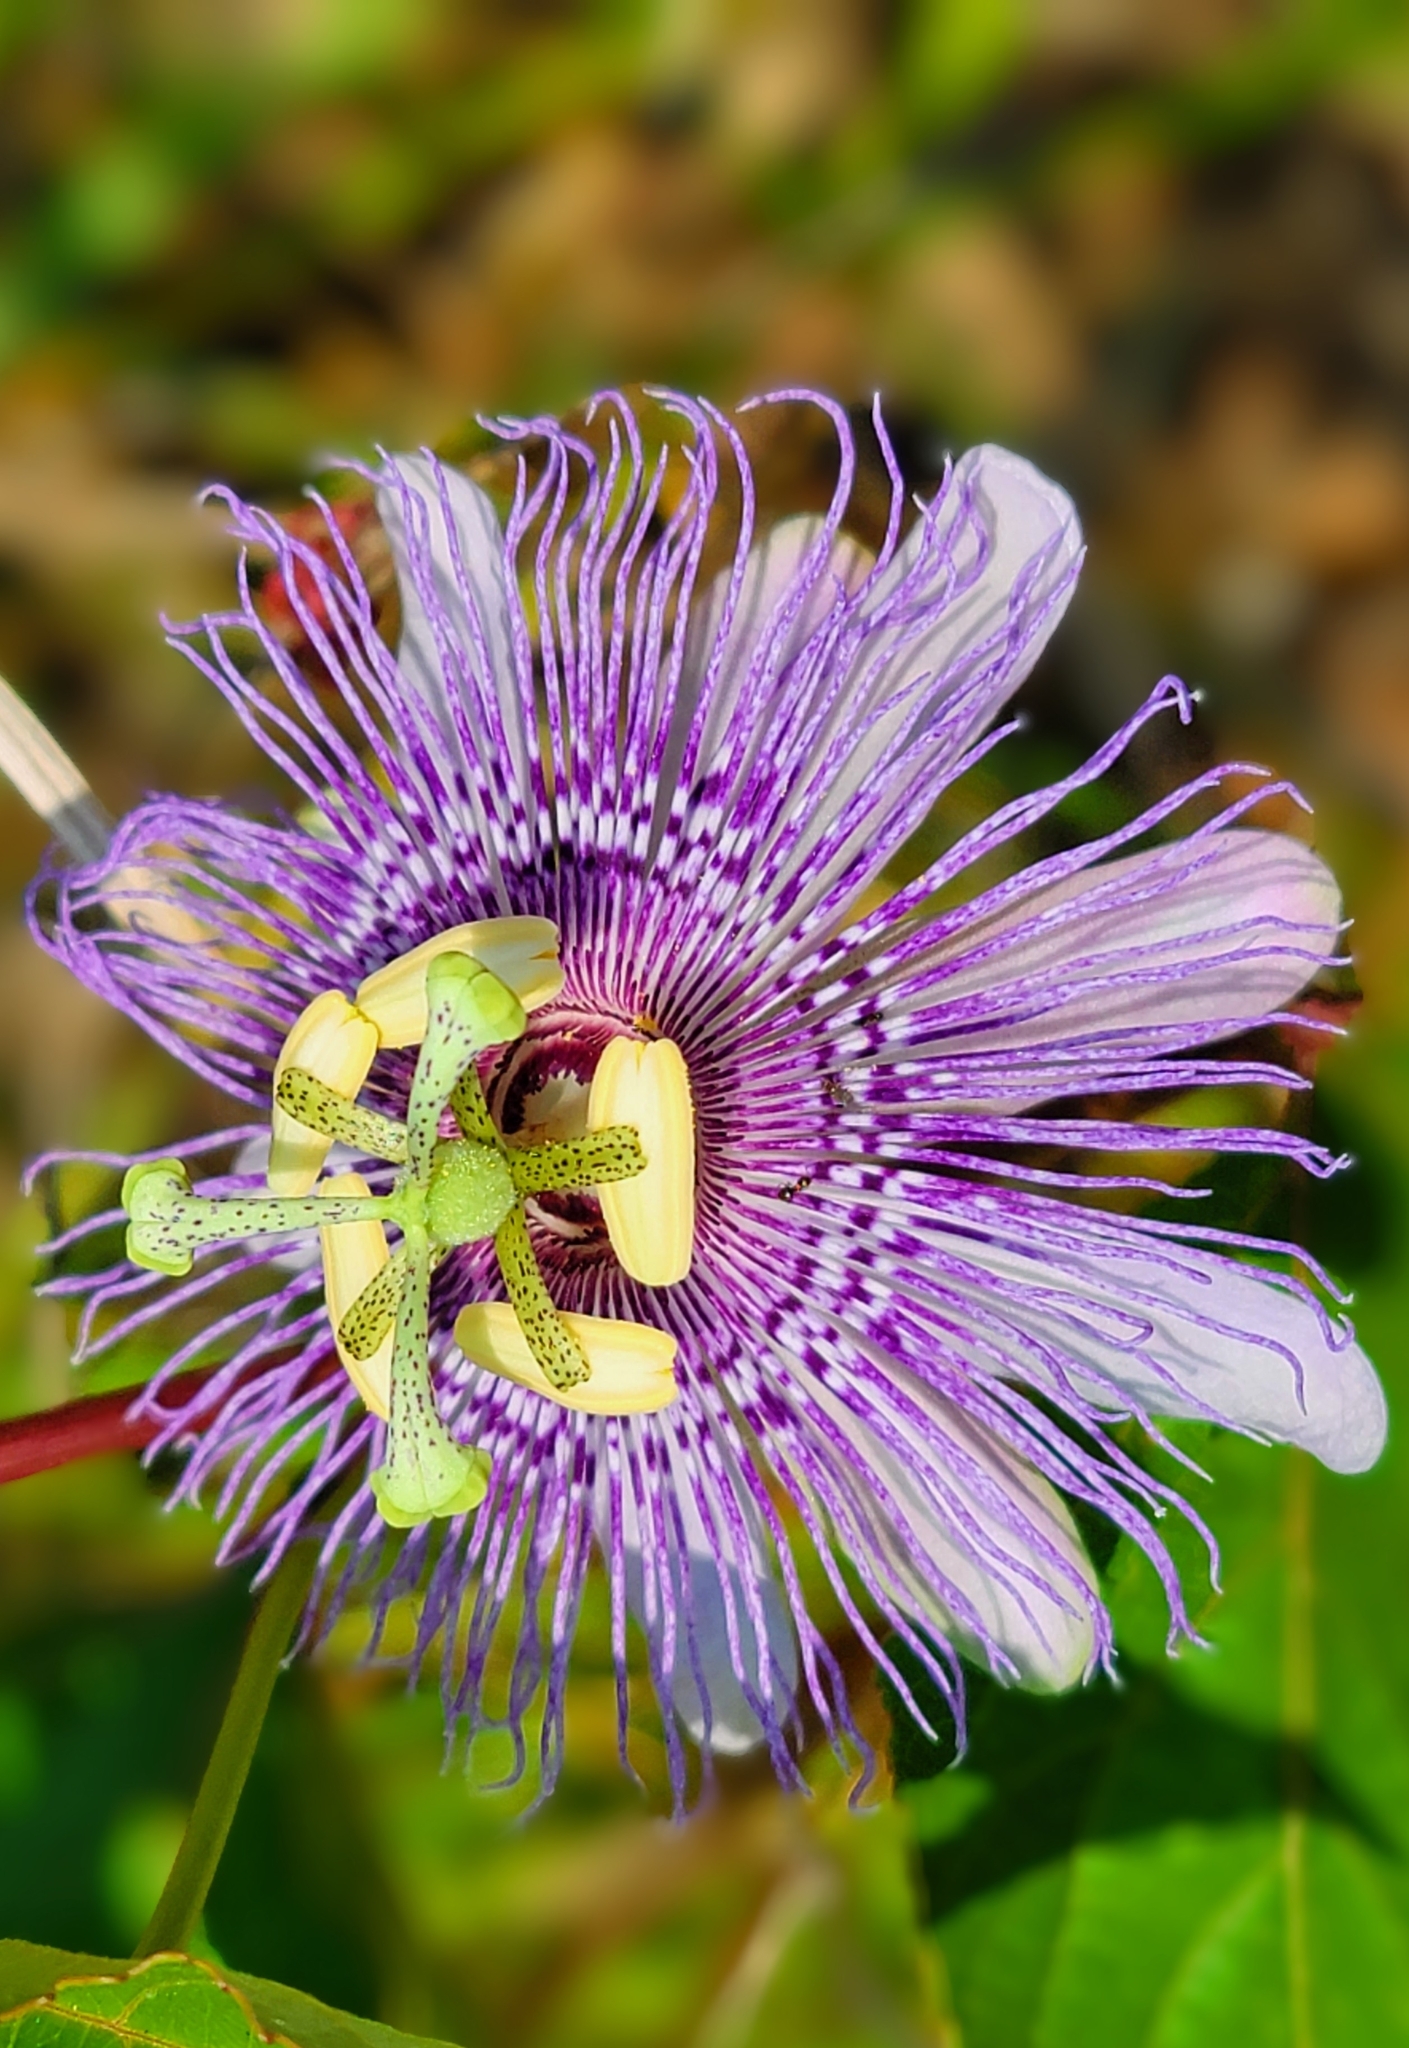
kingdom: Plantae
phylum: Tracheophyta
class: Magnoliopsida
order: Malpighiales
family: Passifloraceae
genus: Passiflora
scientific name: Passiflora incarnata
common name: Apricot-vine
